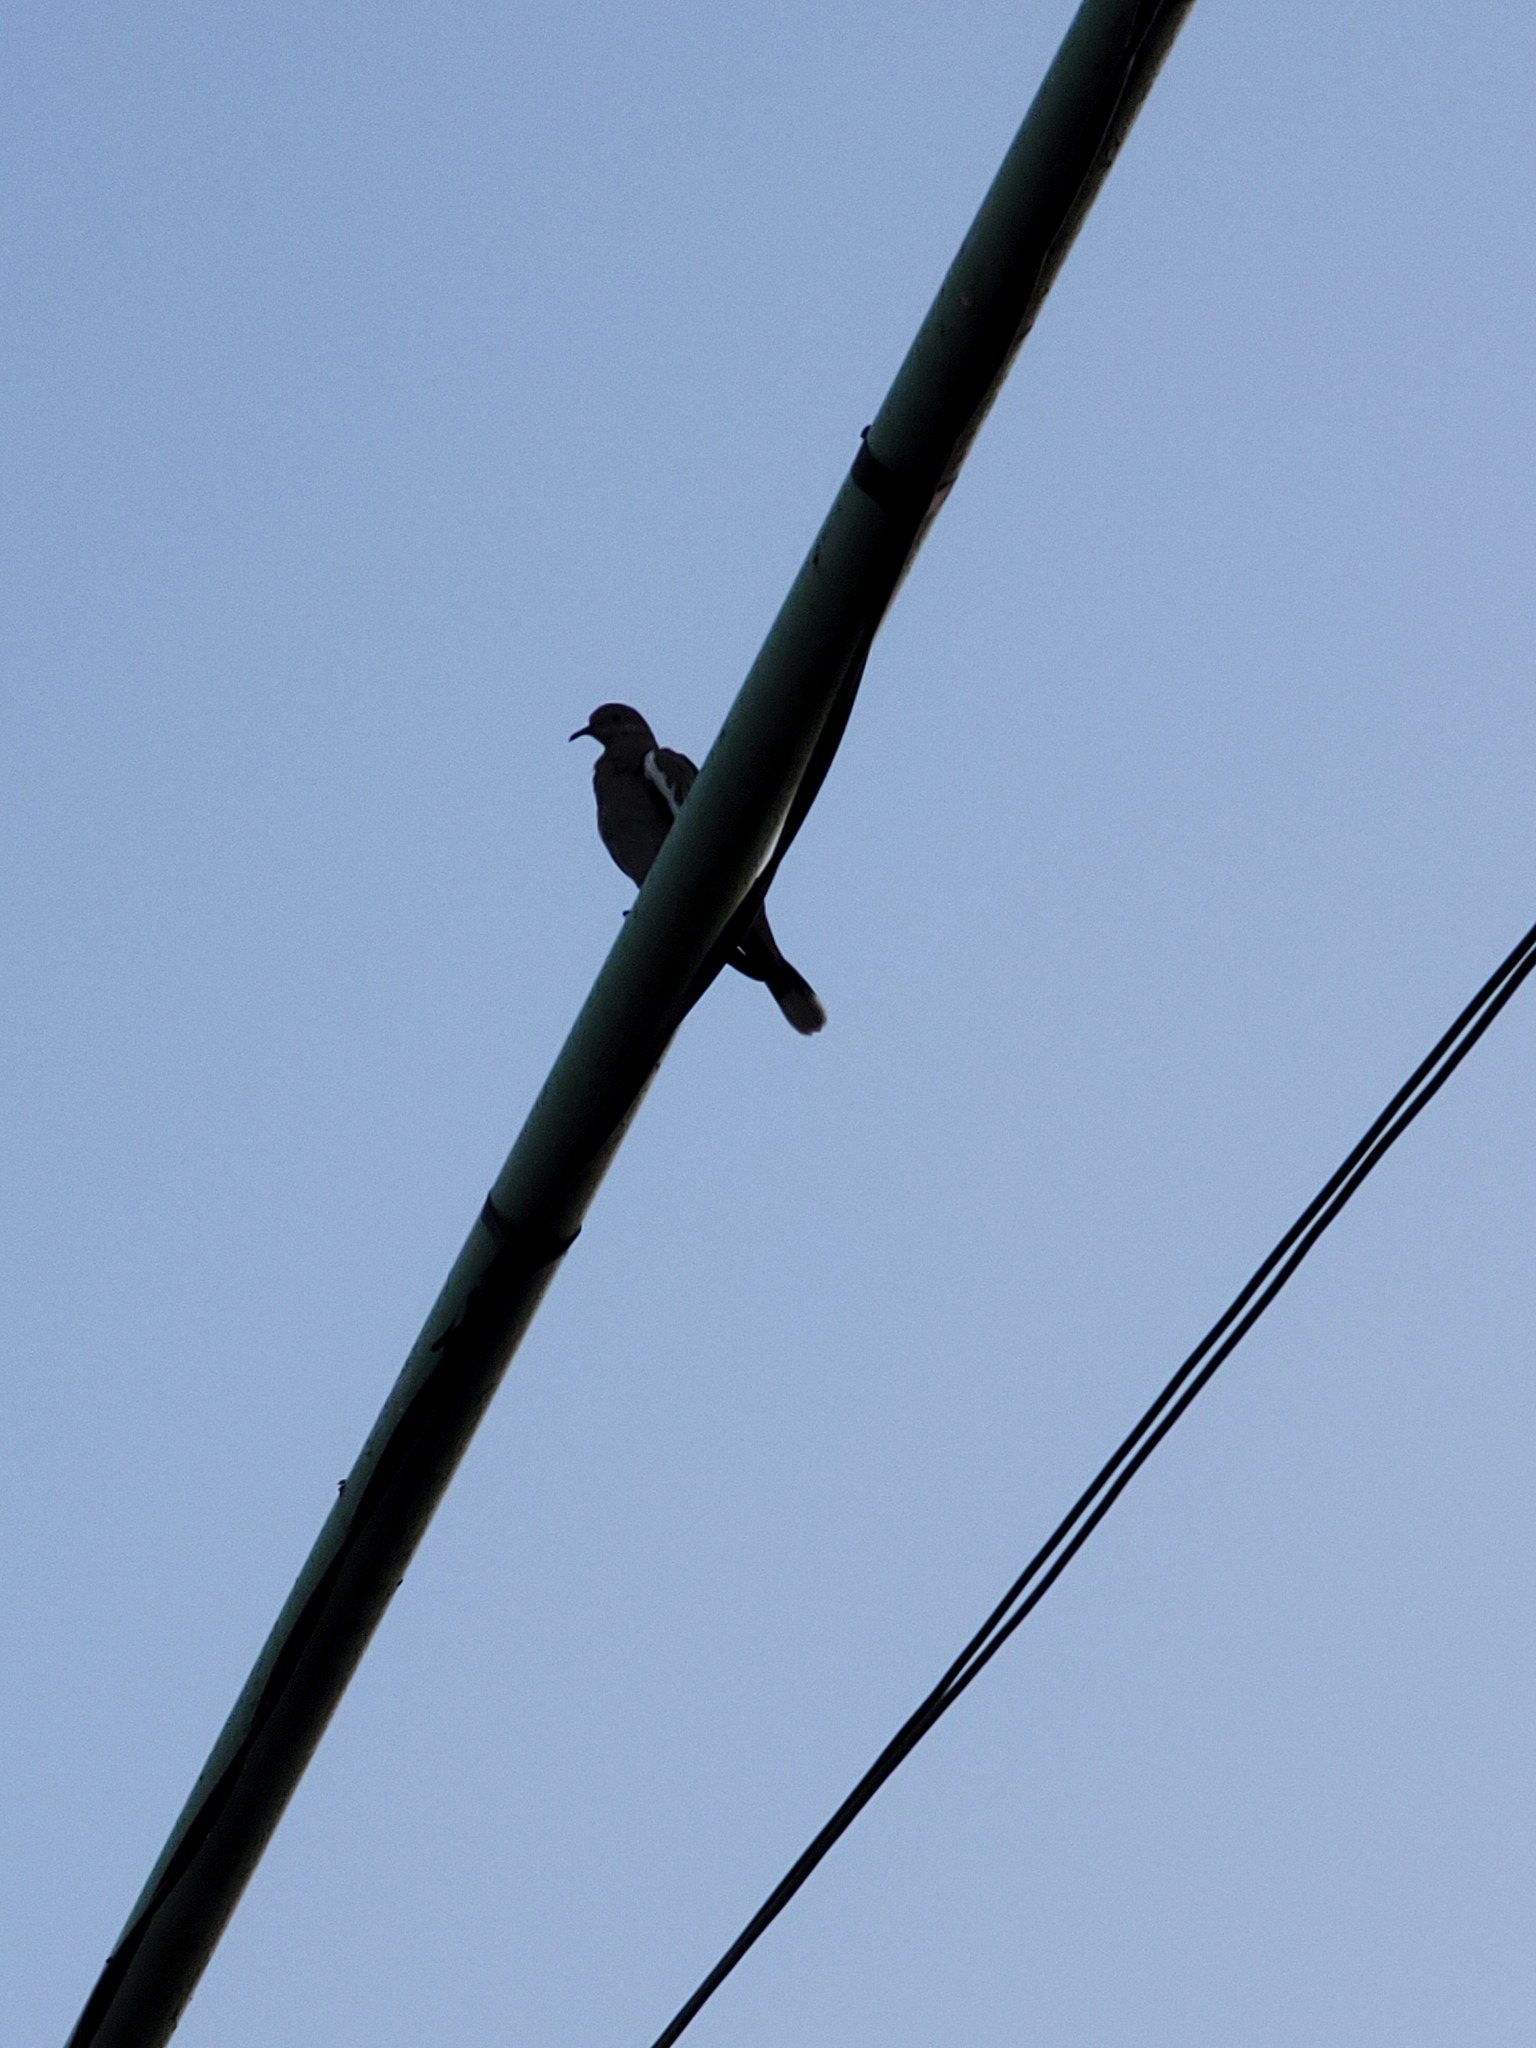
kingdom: Animalia
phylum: Chordata
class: Aves
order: Columbiformes
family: Columbidae
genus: Zenaida
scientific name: Zenaida asiatica
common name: White-winged dove
